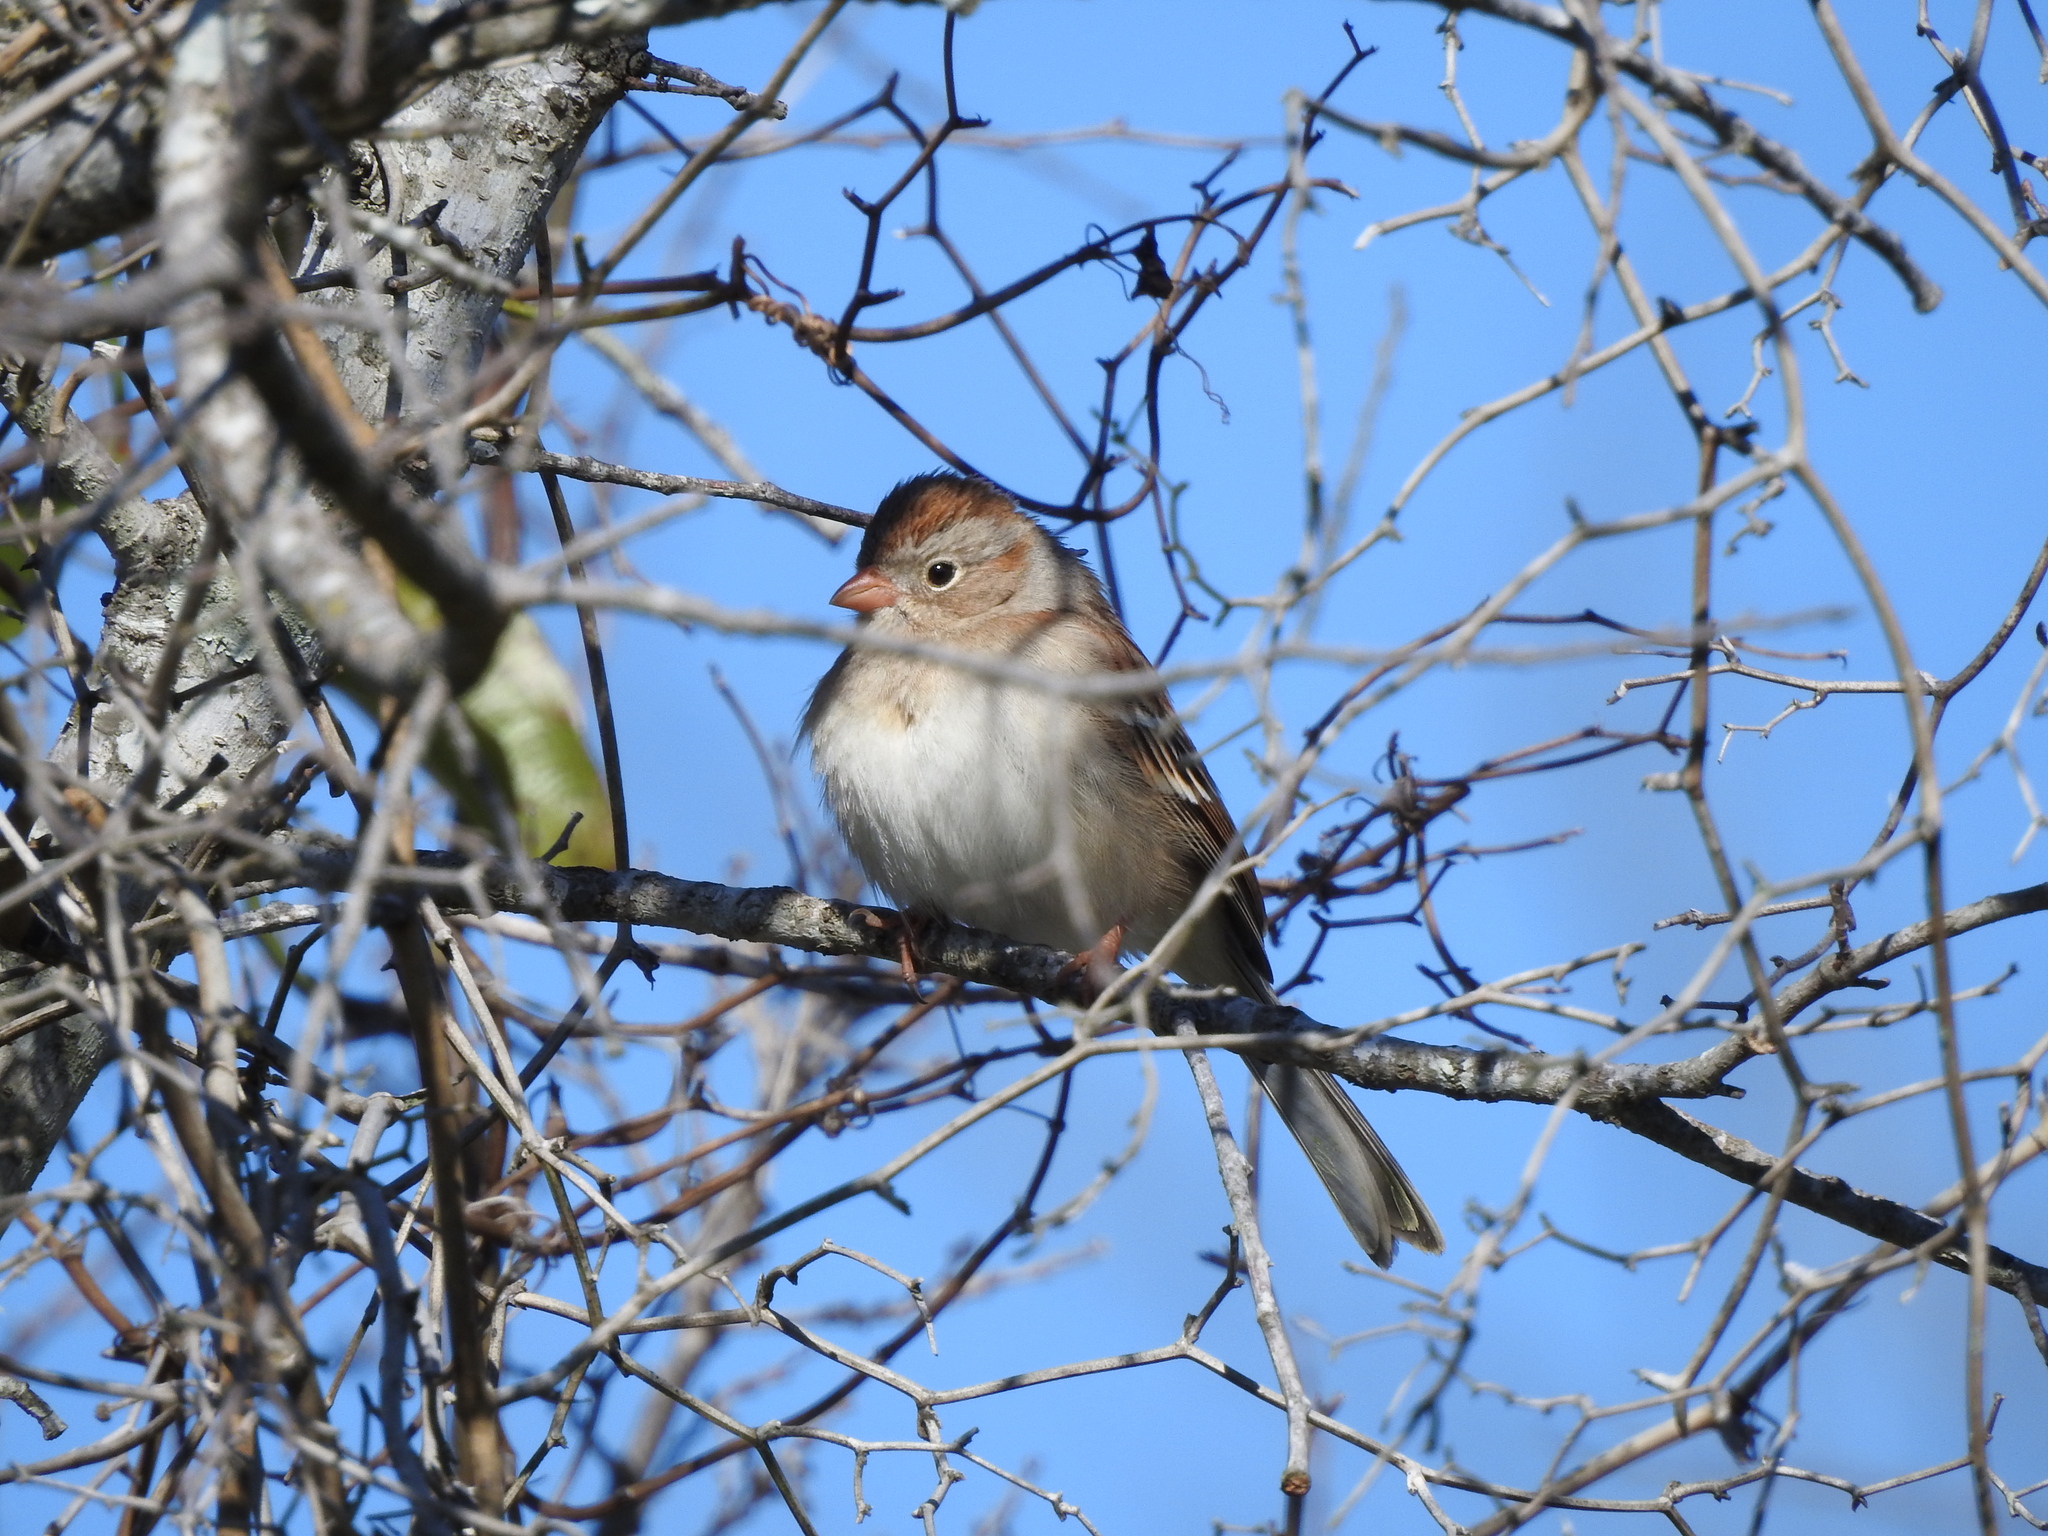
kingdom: Animalia
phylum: Chordata
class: Aves
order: Passeriformes
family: Passerellidae
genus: Spizella
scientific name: Spizella pusilla
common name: Field sparrow
